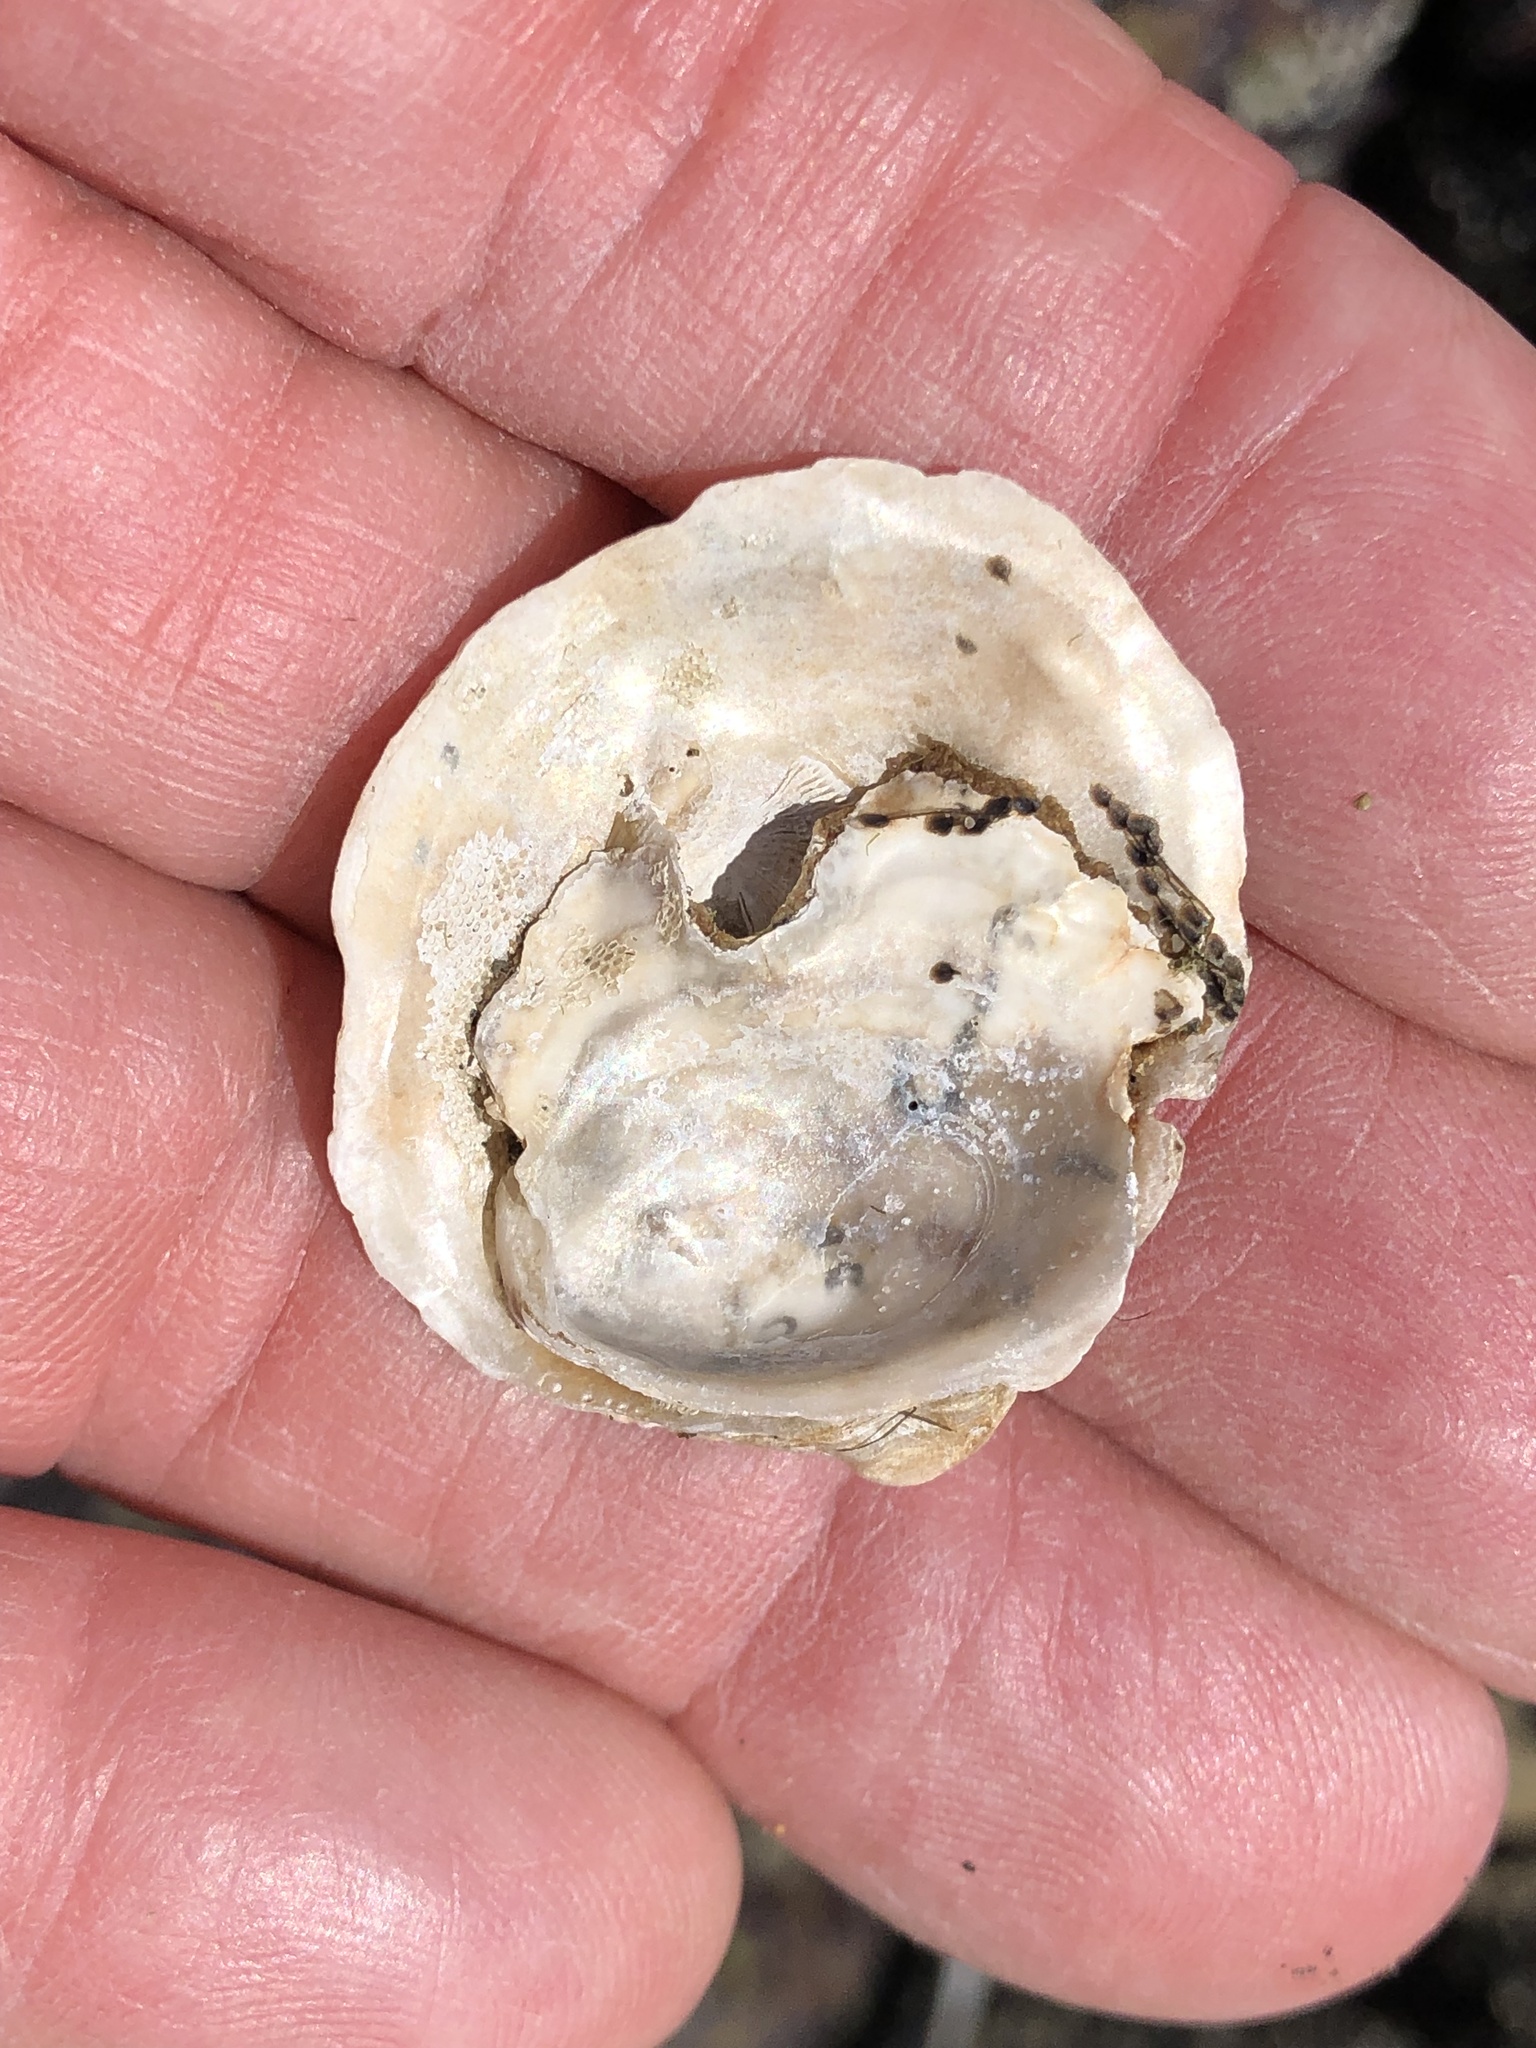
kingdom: Animalia
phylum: Mollusca
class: Bivalvia
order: Ostreida
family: Ostreidae
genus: Ostrea
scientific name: Ostrea lurida
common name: Olympia flat oyster
